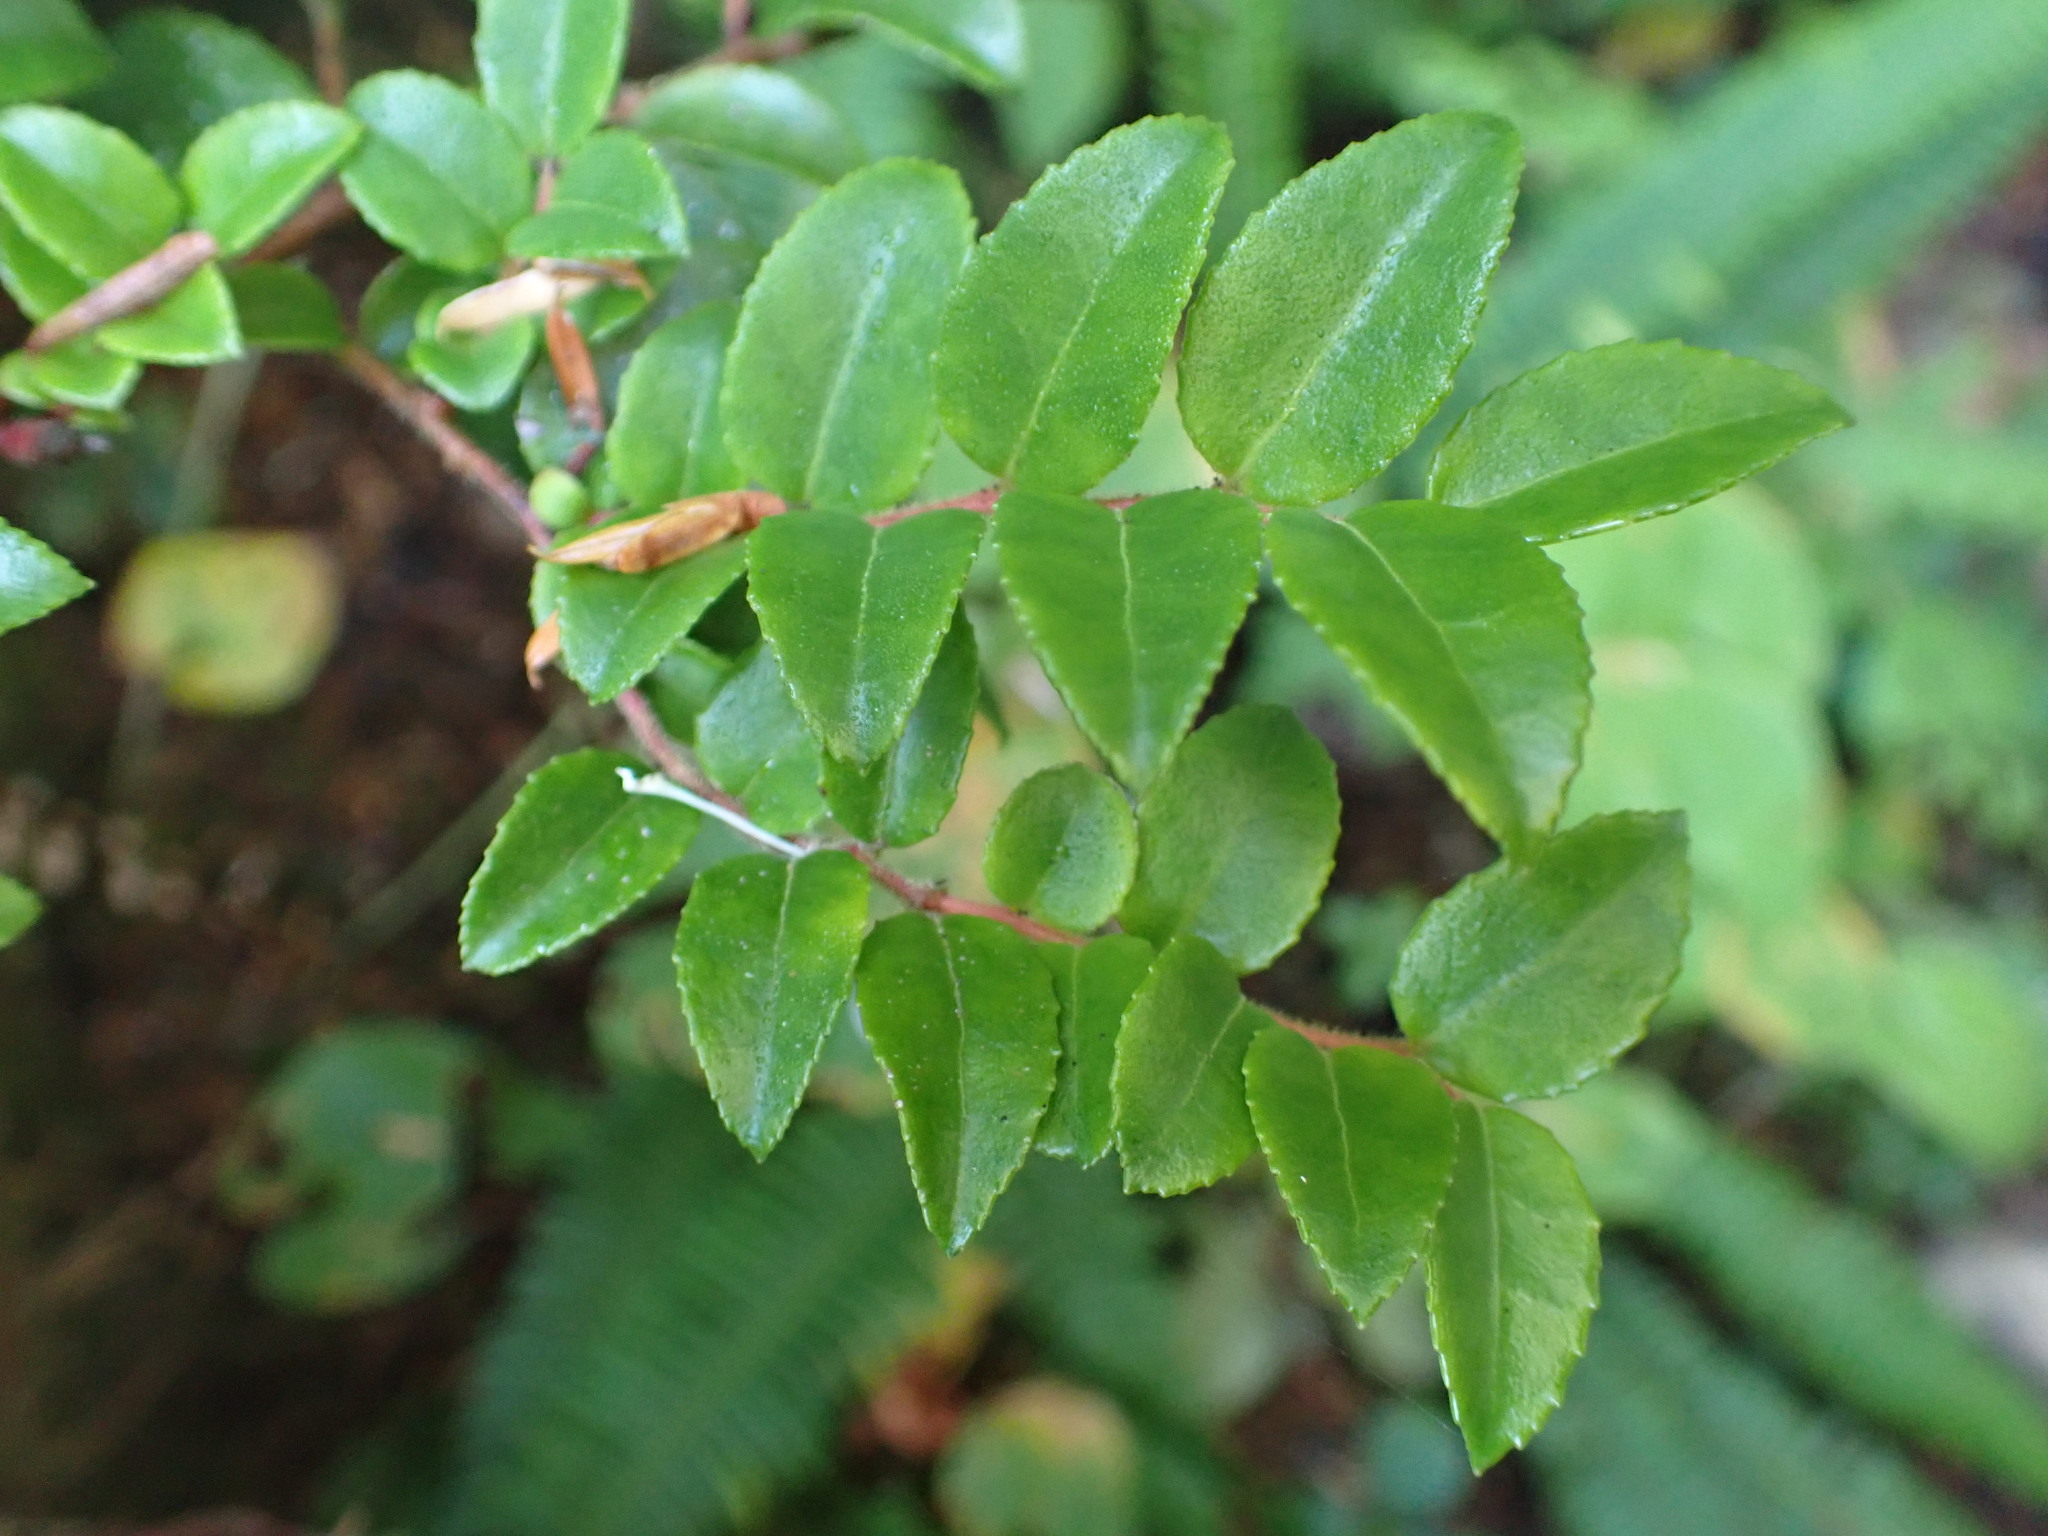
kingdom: Plantae
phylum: Tracheophyta
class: Magnoliopsida
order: Ericales
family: Ericaceae
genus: Vaccinium
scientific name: Vaccinium ovatum
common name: California-huckleberry
